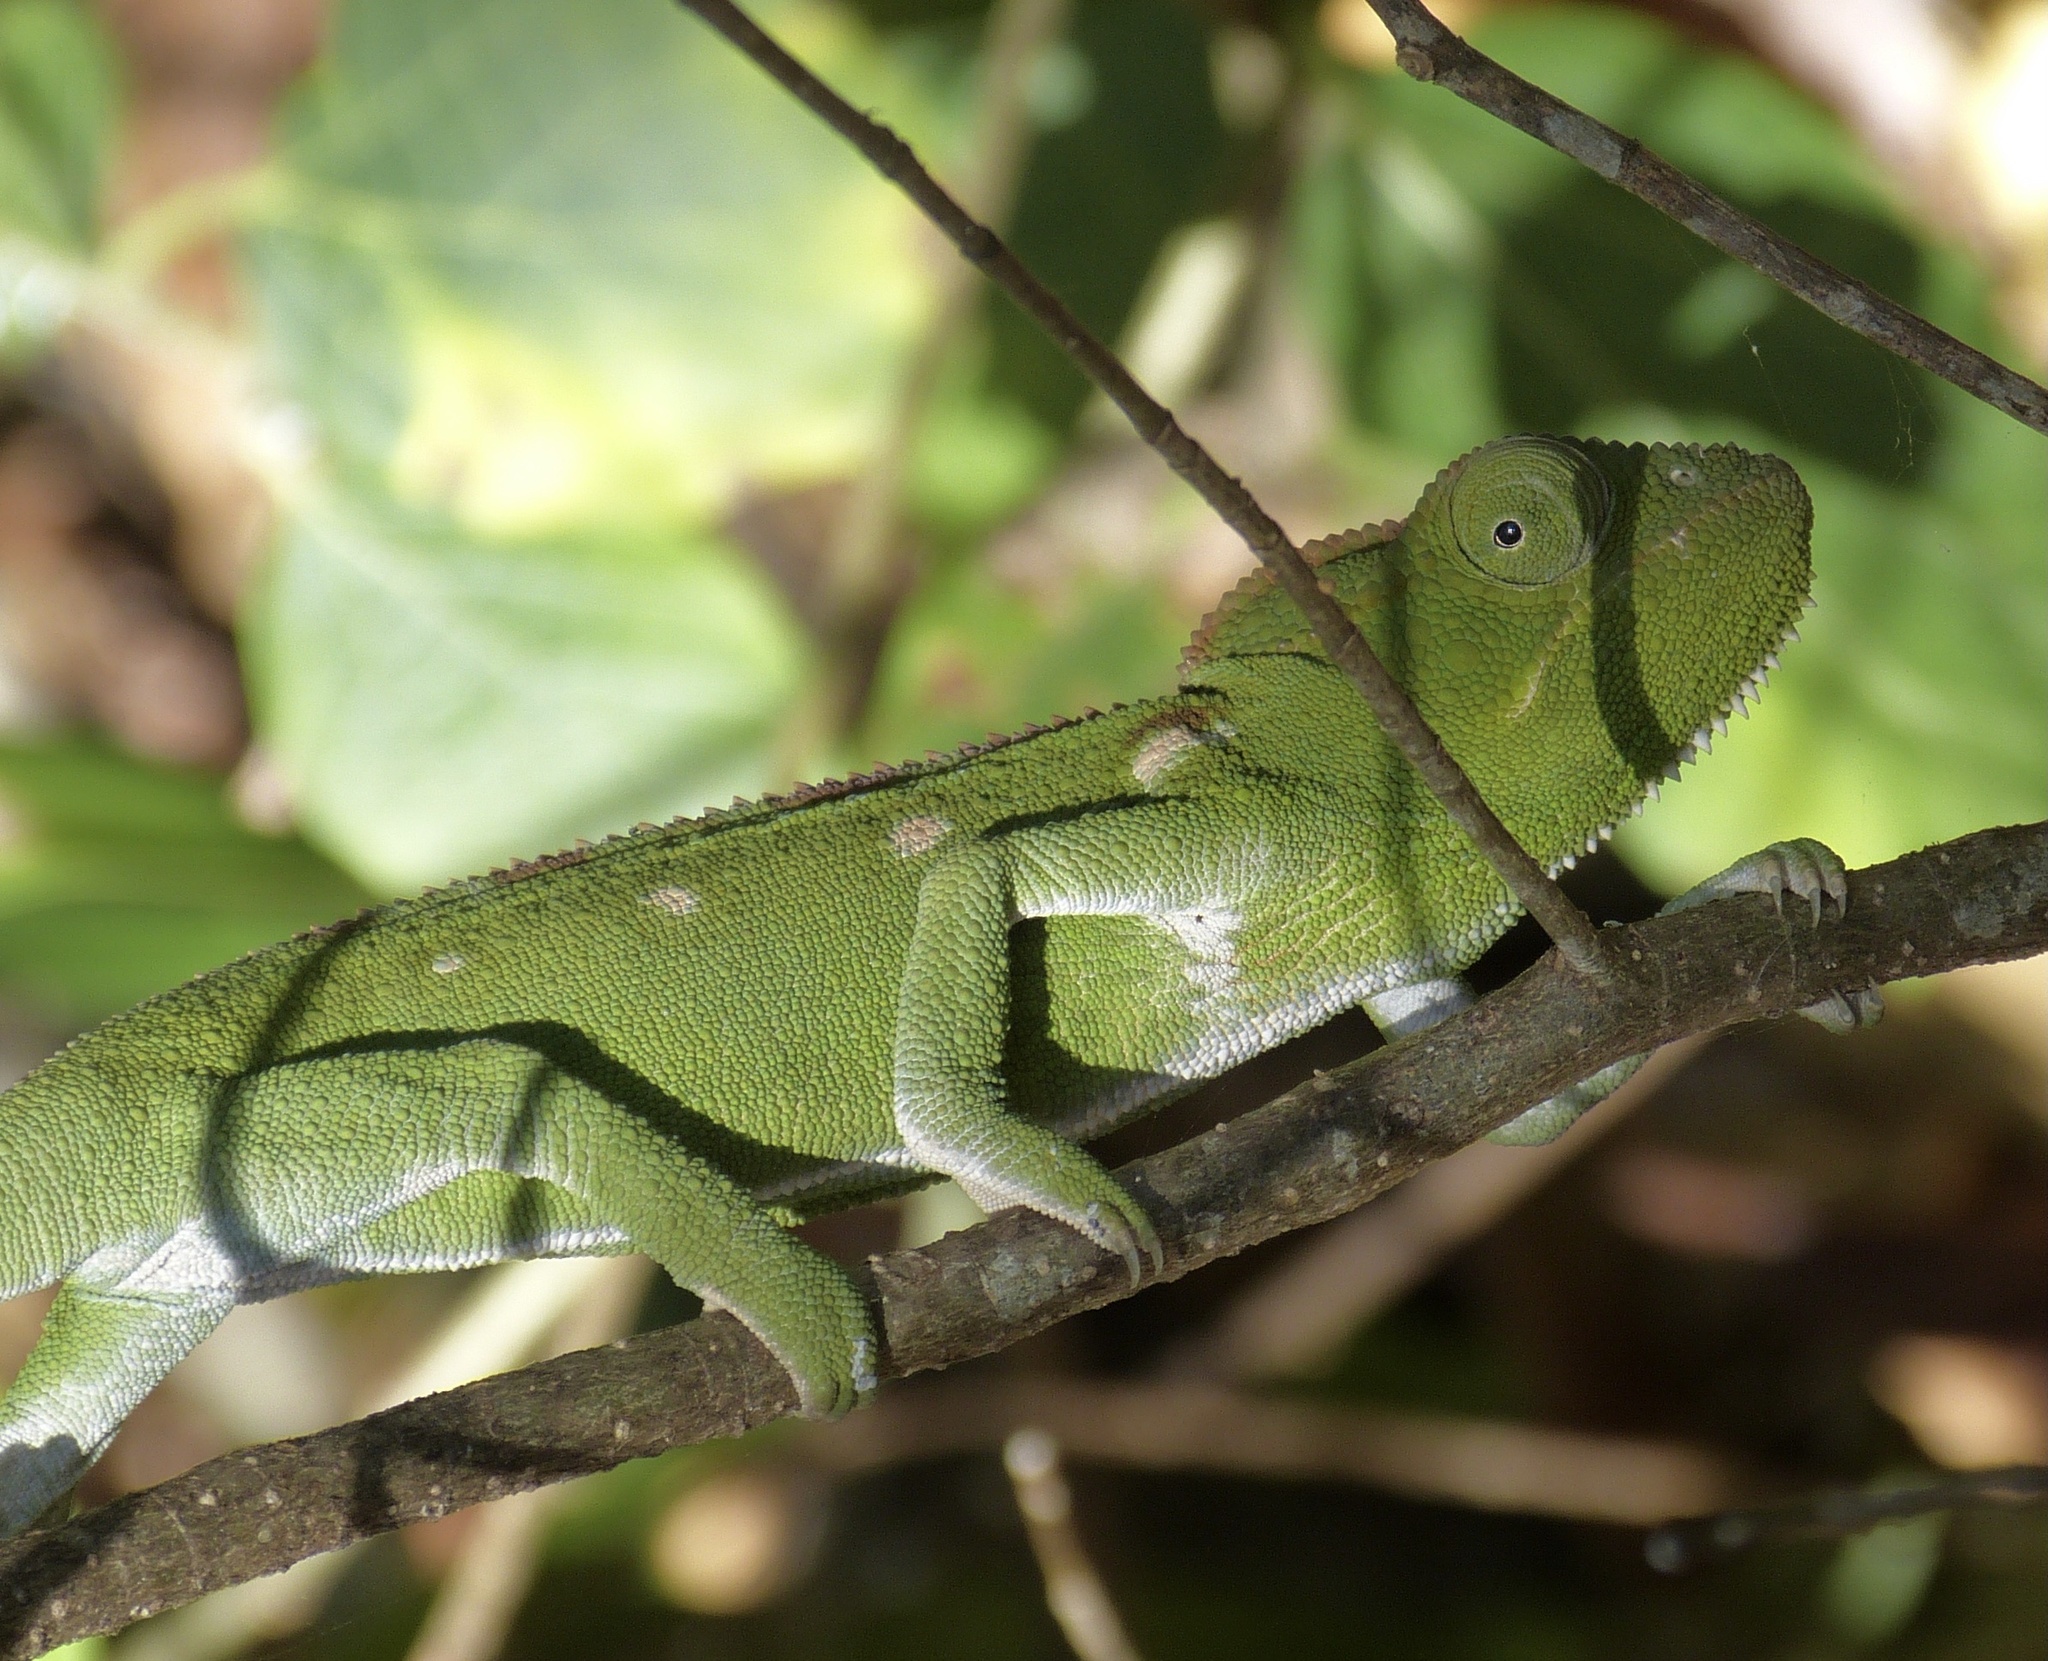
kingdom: Animalia
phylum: Chordata
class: Squamata
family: Chamaeleonidae
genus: Furcifer
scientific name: Furcifer oustaleti
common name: Oustalet's chameleon
